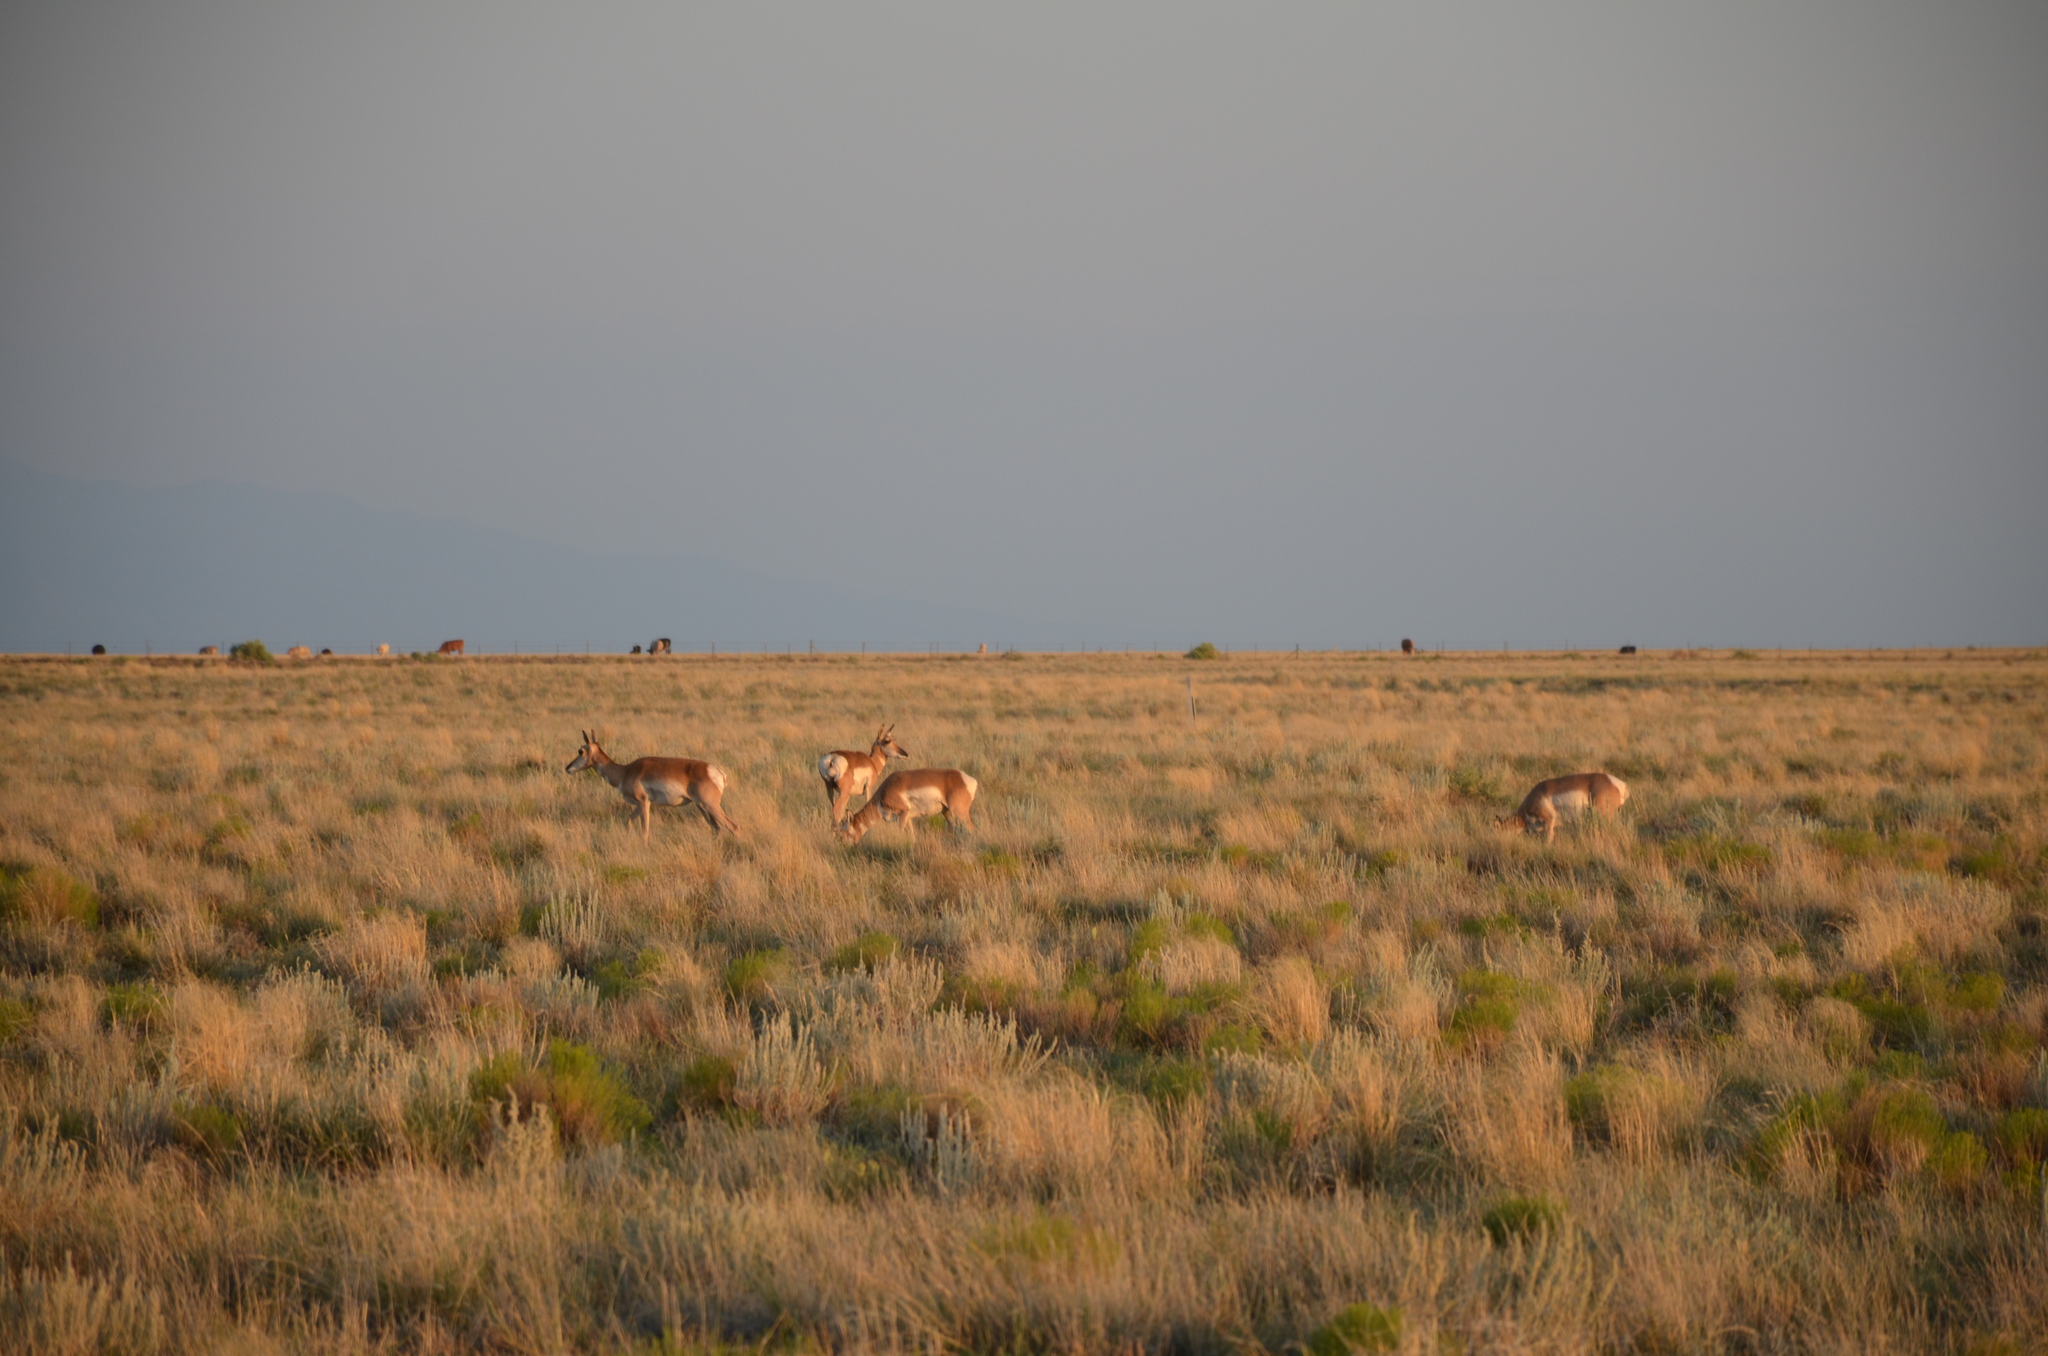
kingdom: Animalia
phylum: Chordata
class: Mammalia
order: Artiodactyla
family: Antilocapridae
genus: Antilocapra
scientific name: Antilocapra americana
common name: Pronghorn
